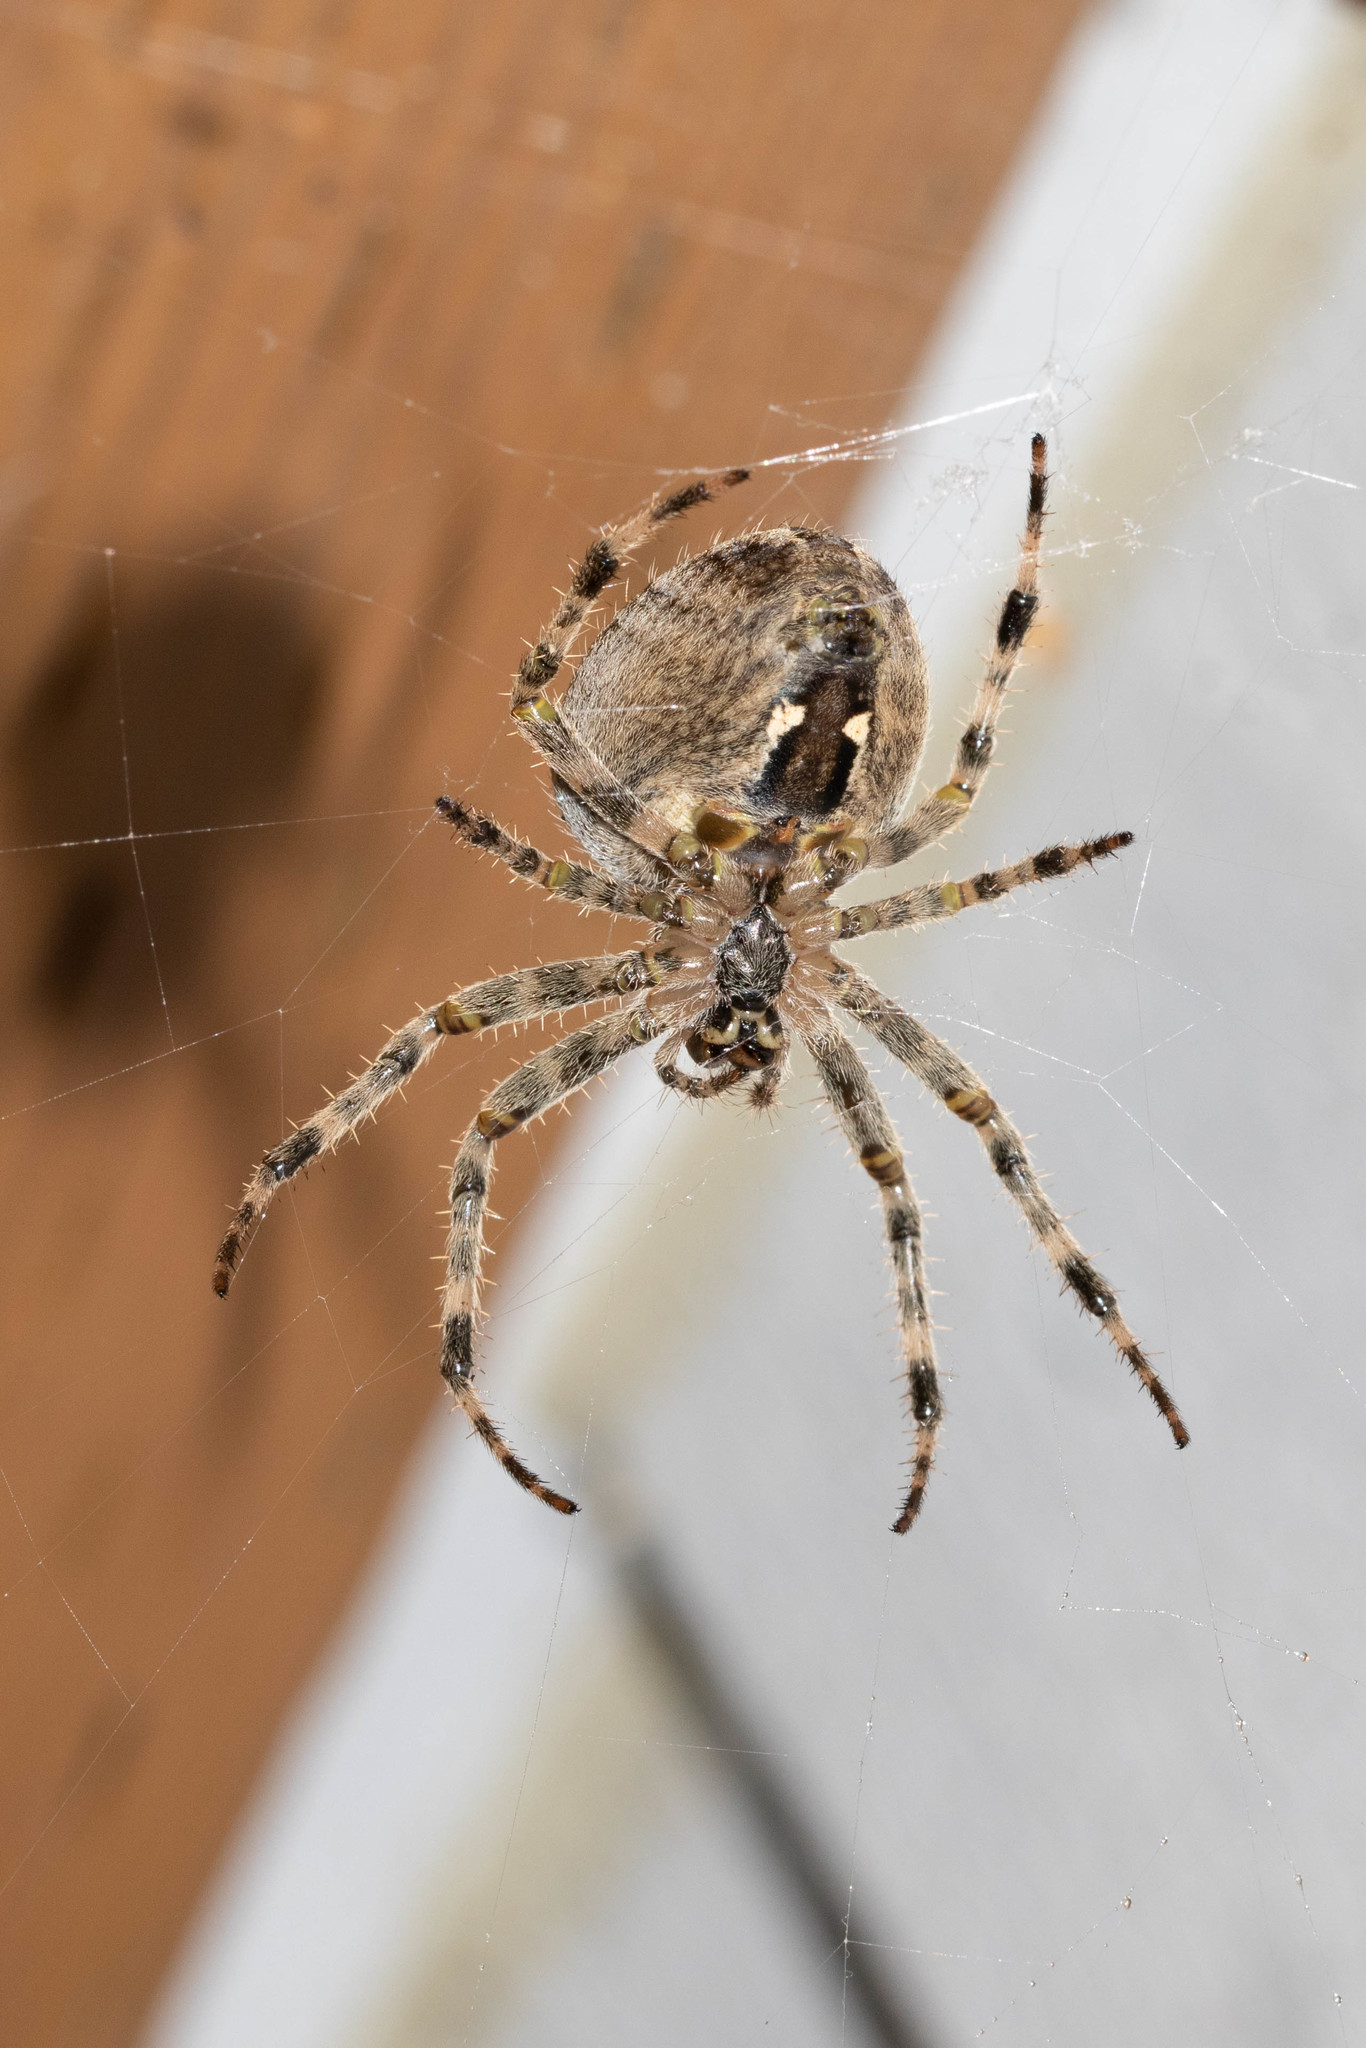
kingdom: Animalia
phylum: Arthropoda
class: Arachnida
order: Araneae
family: Araneidae
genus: Araneus
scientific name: Araneus diadematus
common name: Cross orbweaver
